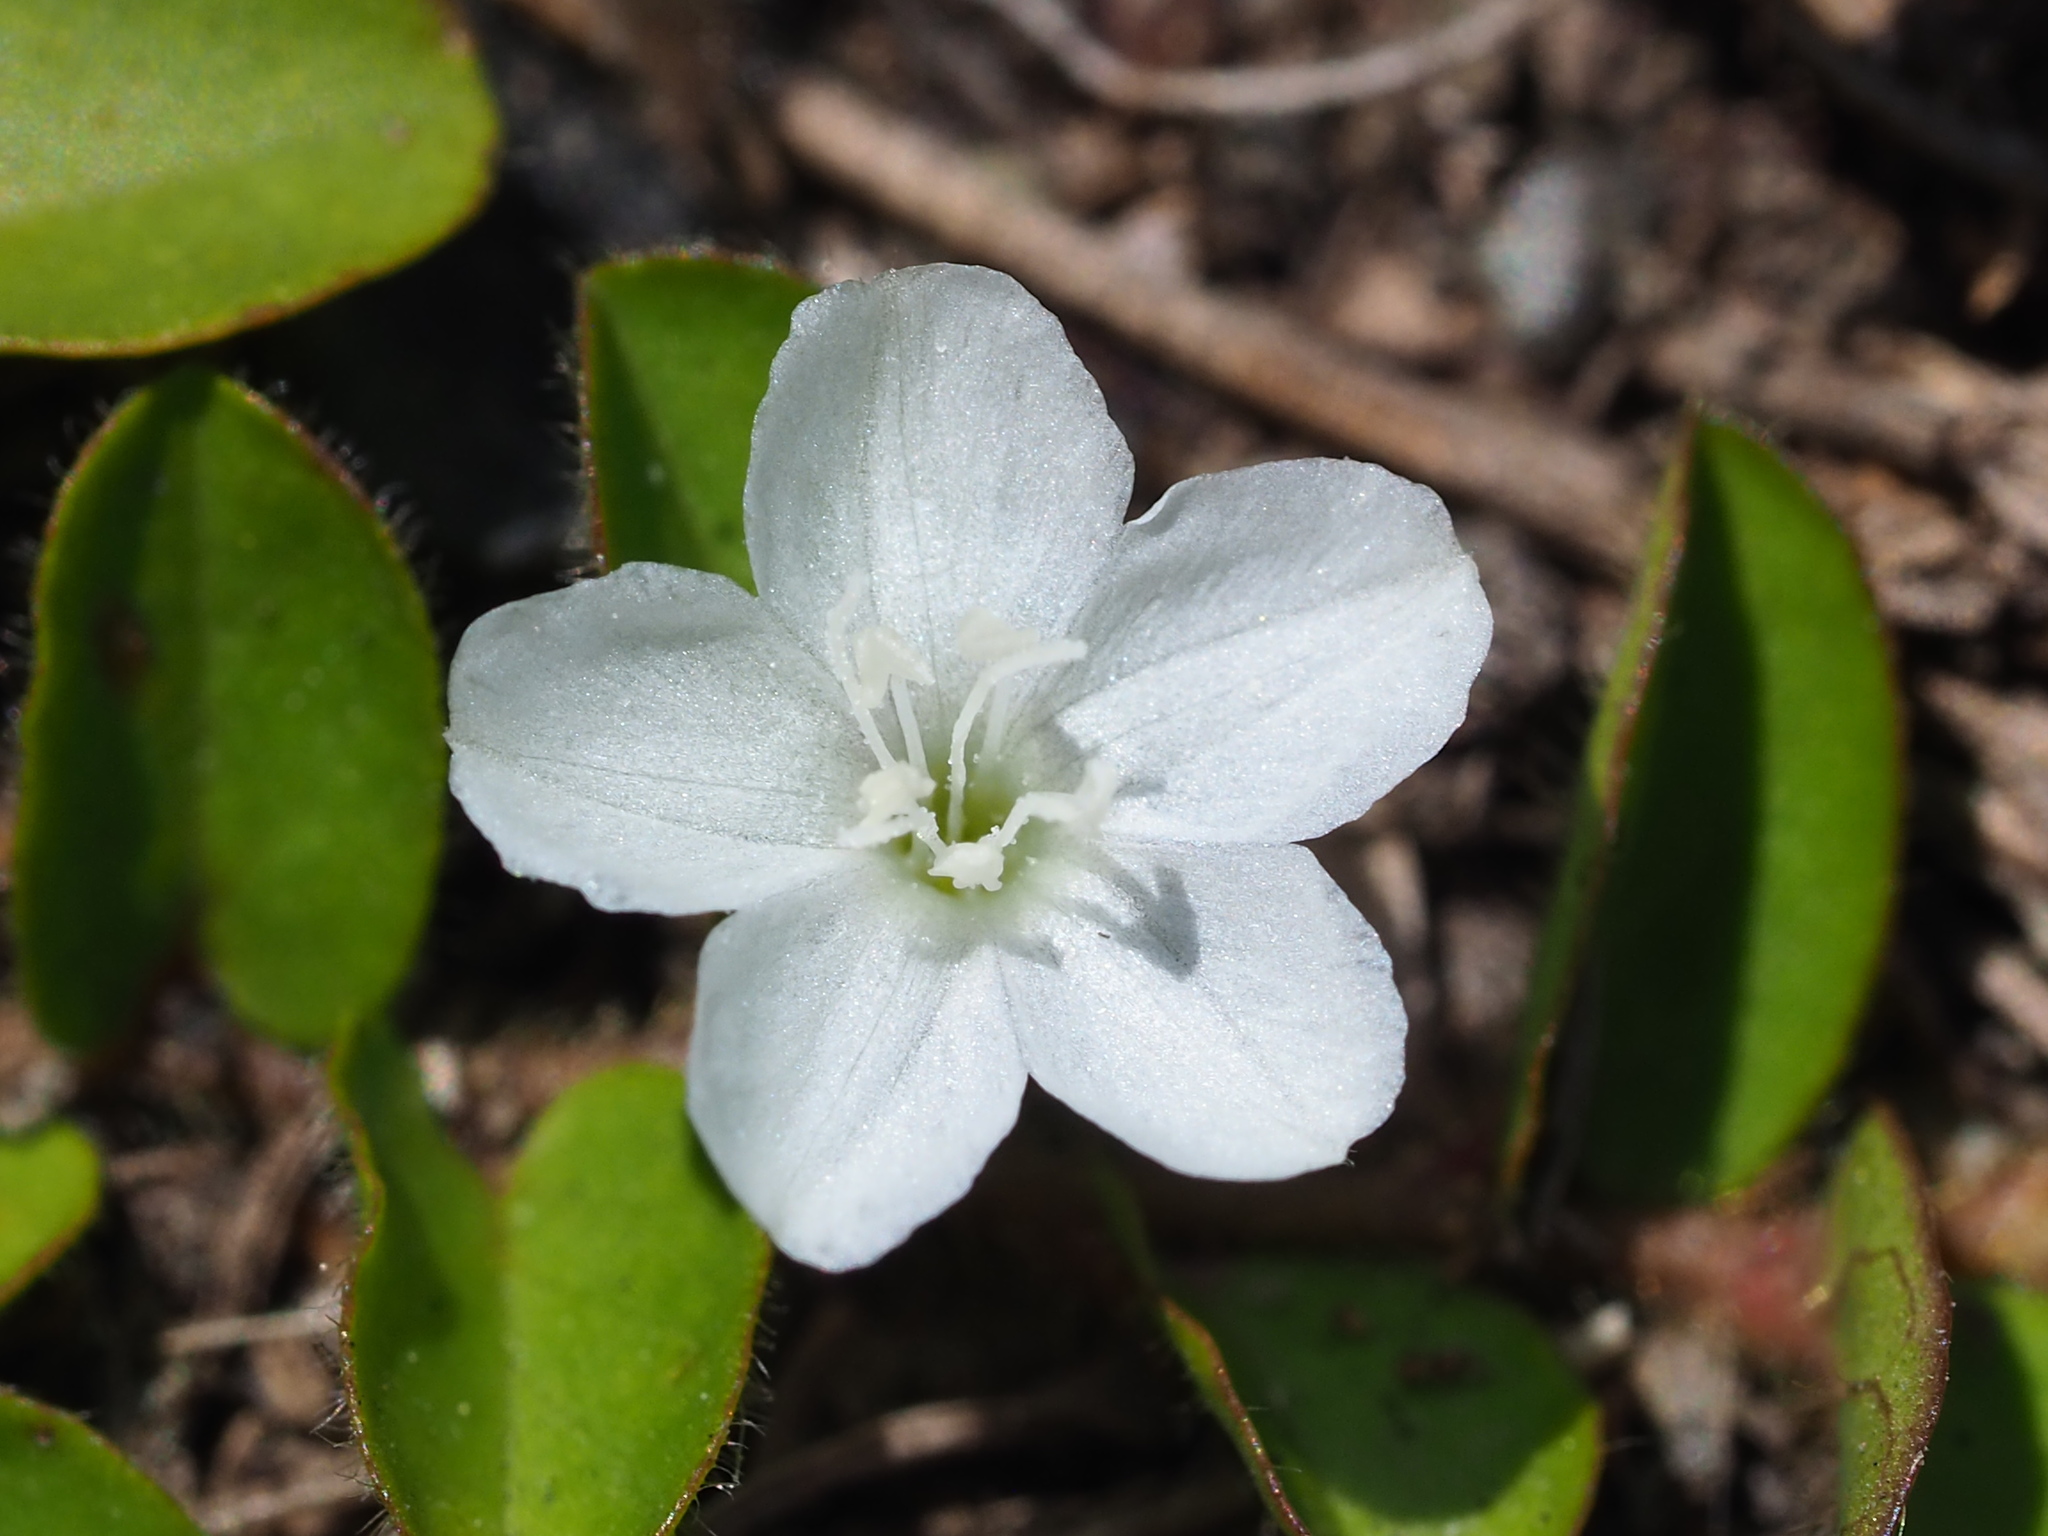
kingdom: Plantae
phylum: Tracheophyta
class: Magnoliopsida
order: Solanales
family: Convolvulaceae
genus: Evolvulus
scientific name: Evolvulus nummularius
